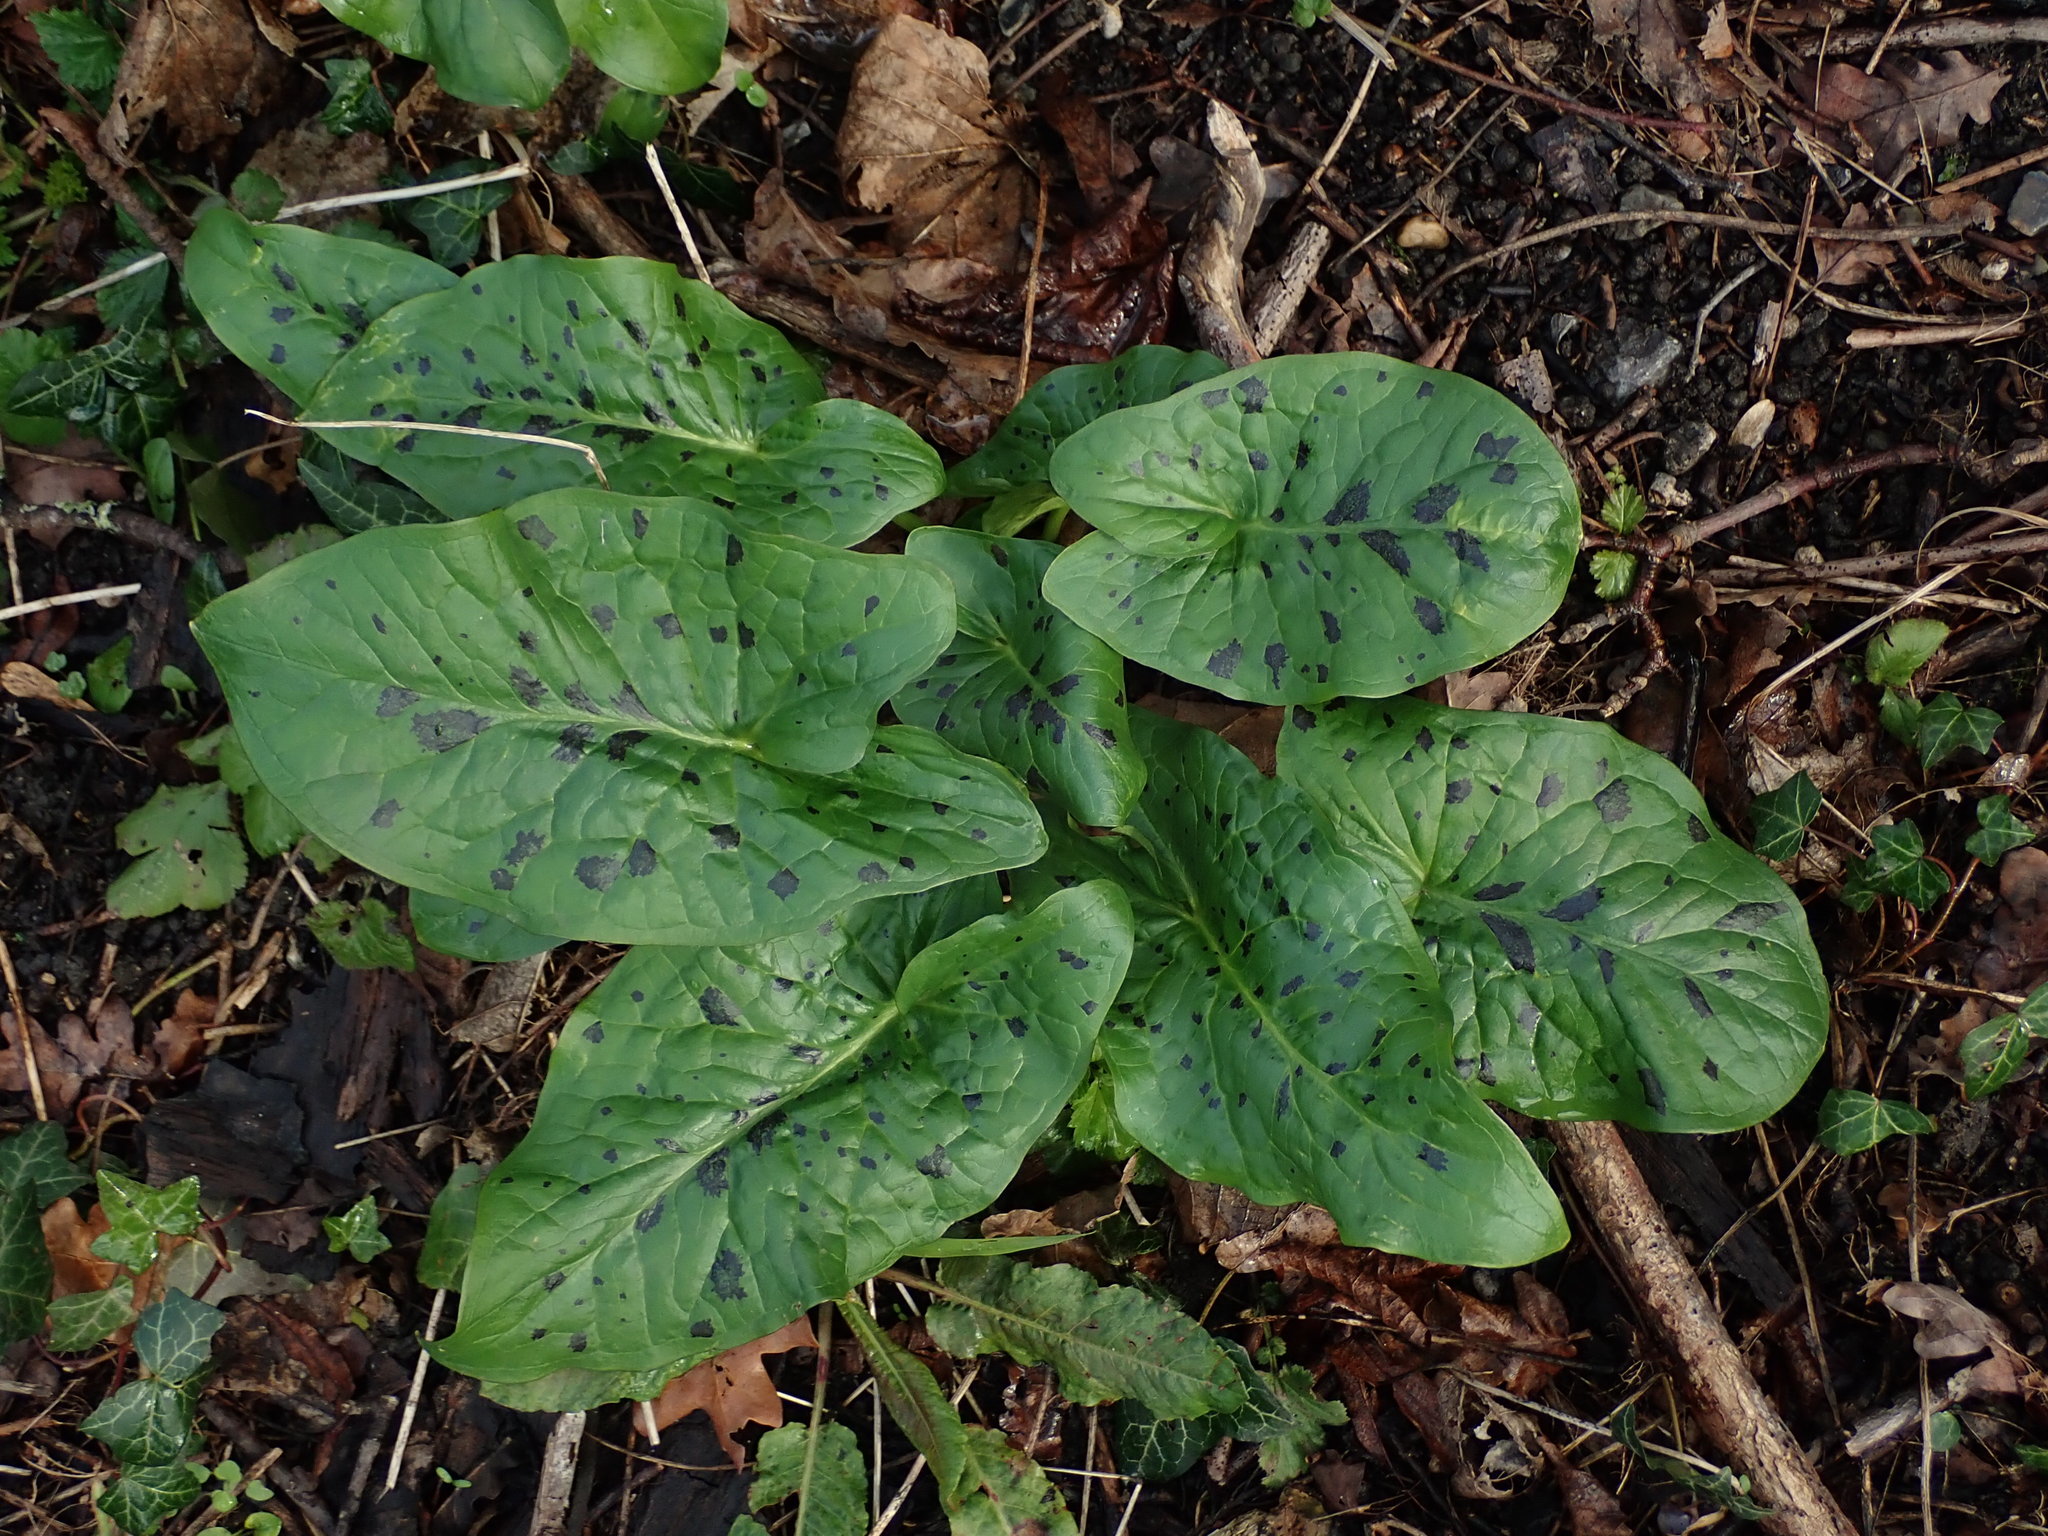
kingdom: Plantae
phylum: Tracheophyta
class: Liliopsida
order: Alismatales
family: Araceae
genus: Arum
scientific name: Arum maculatum
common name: Lords-and-ladies
